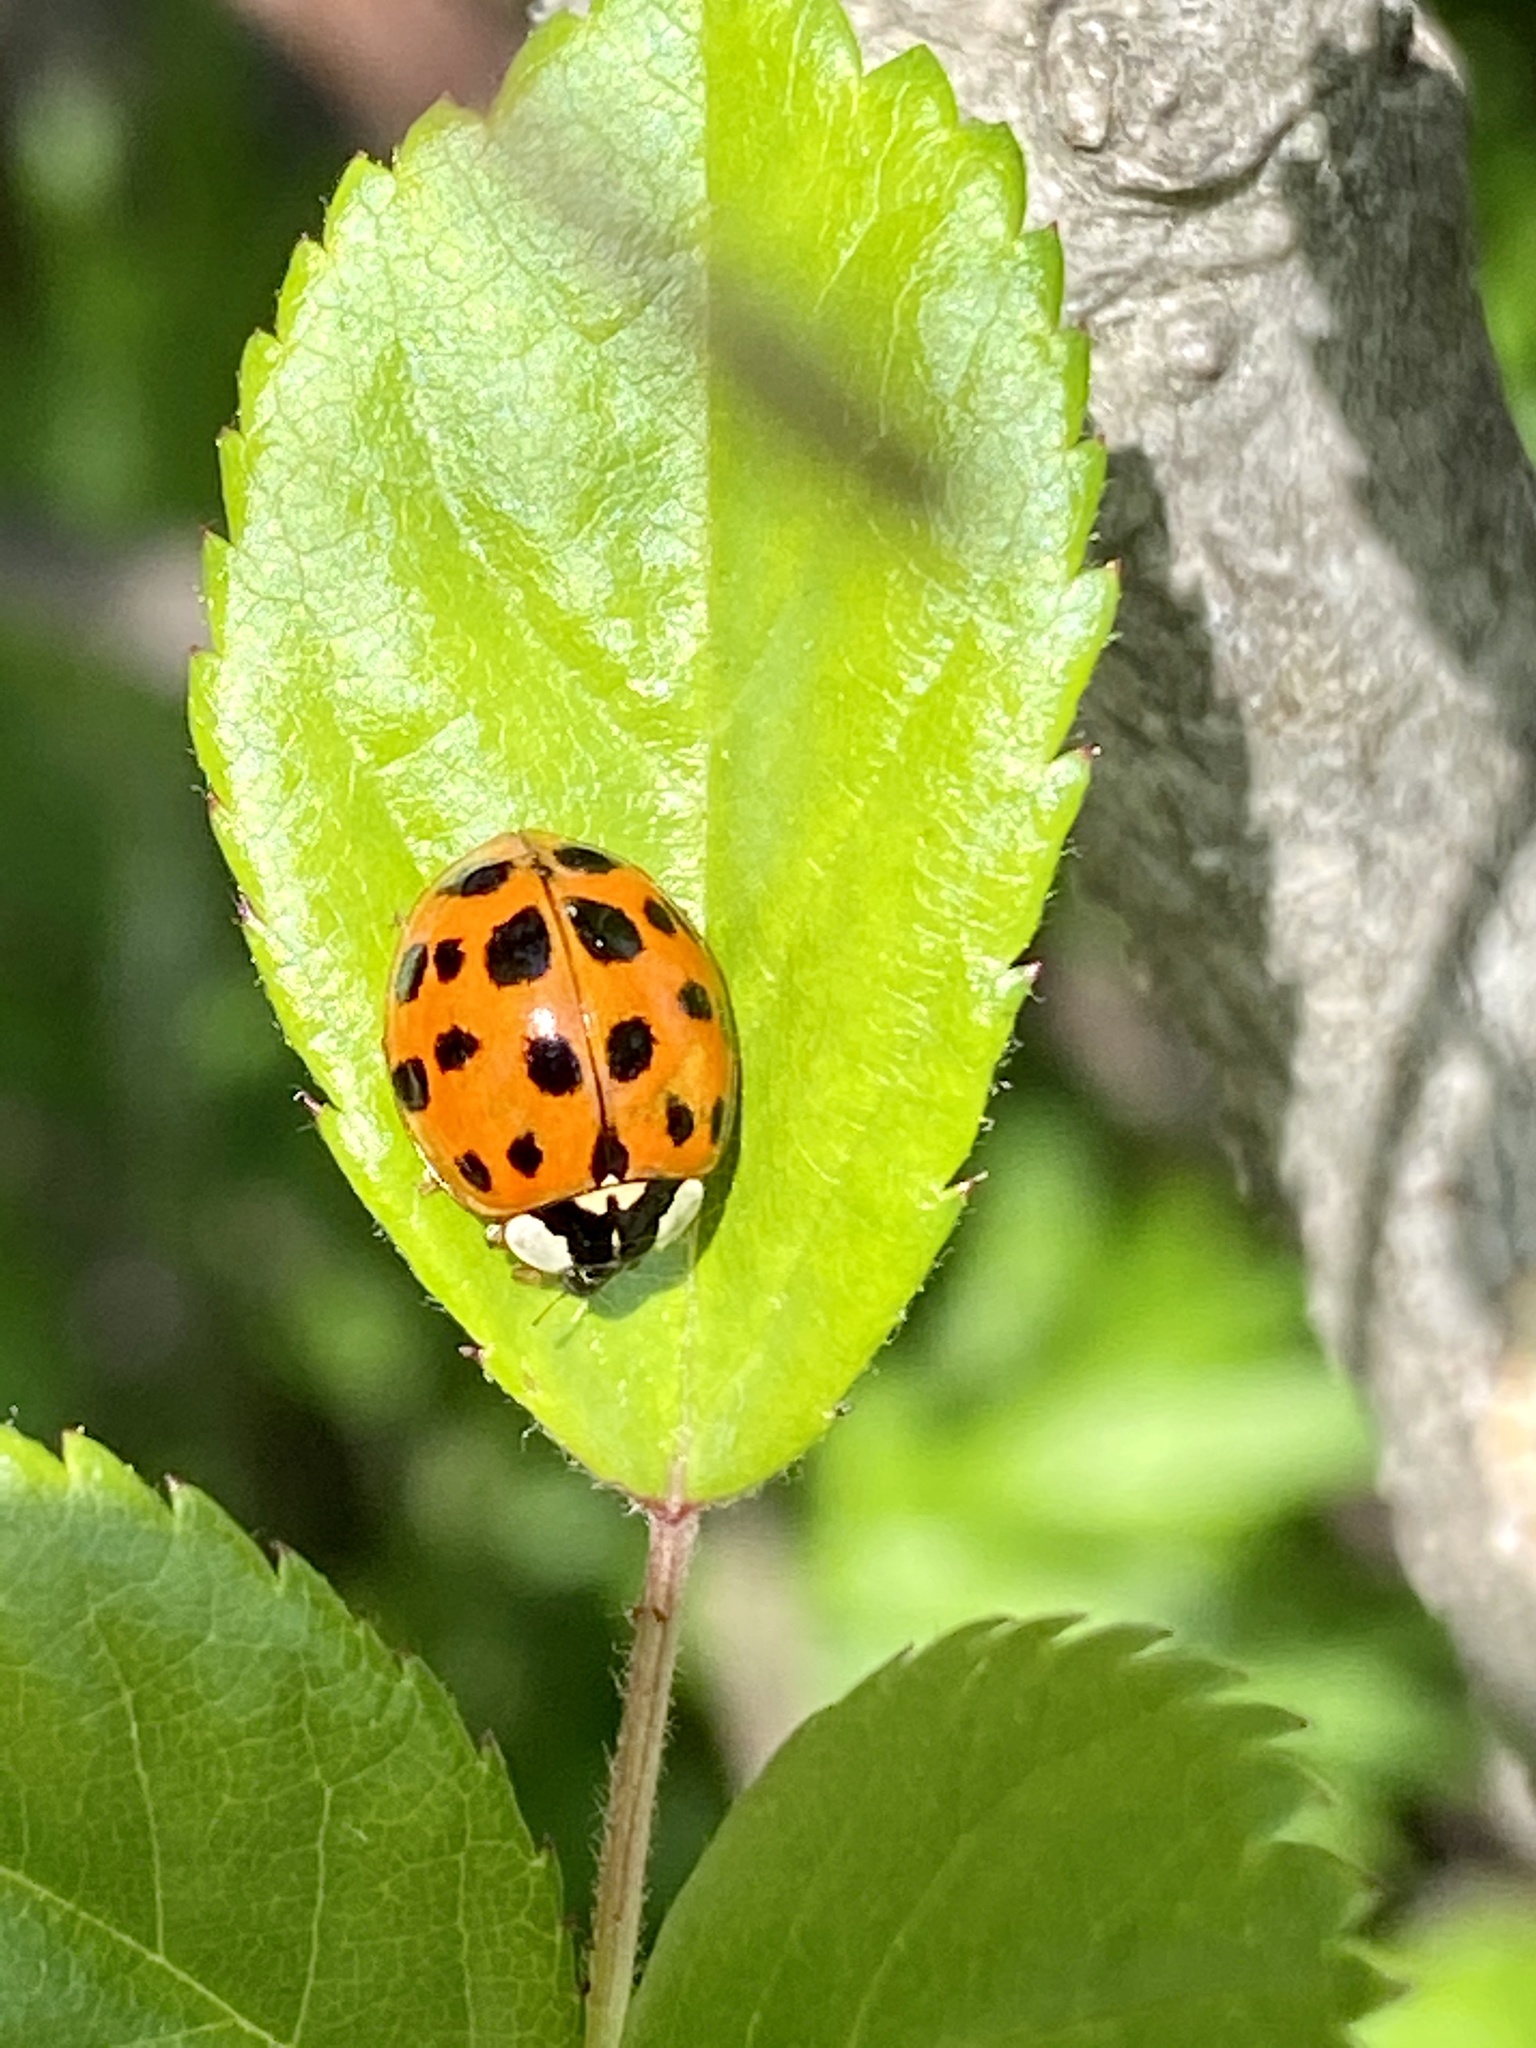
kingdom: Animalia
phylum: Arthropoda
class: Insecta
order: Coleoptera
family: Coccinellidae
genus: Harmonia
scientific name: Harmonia axyridis
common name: Harlequin ladybird
